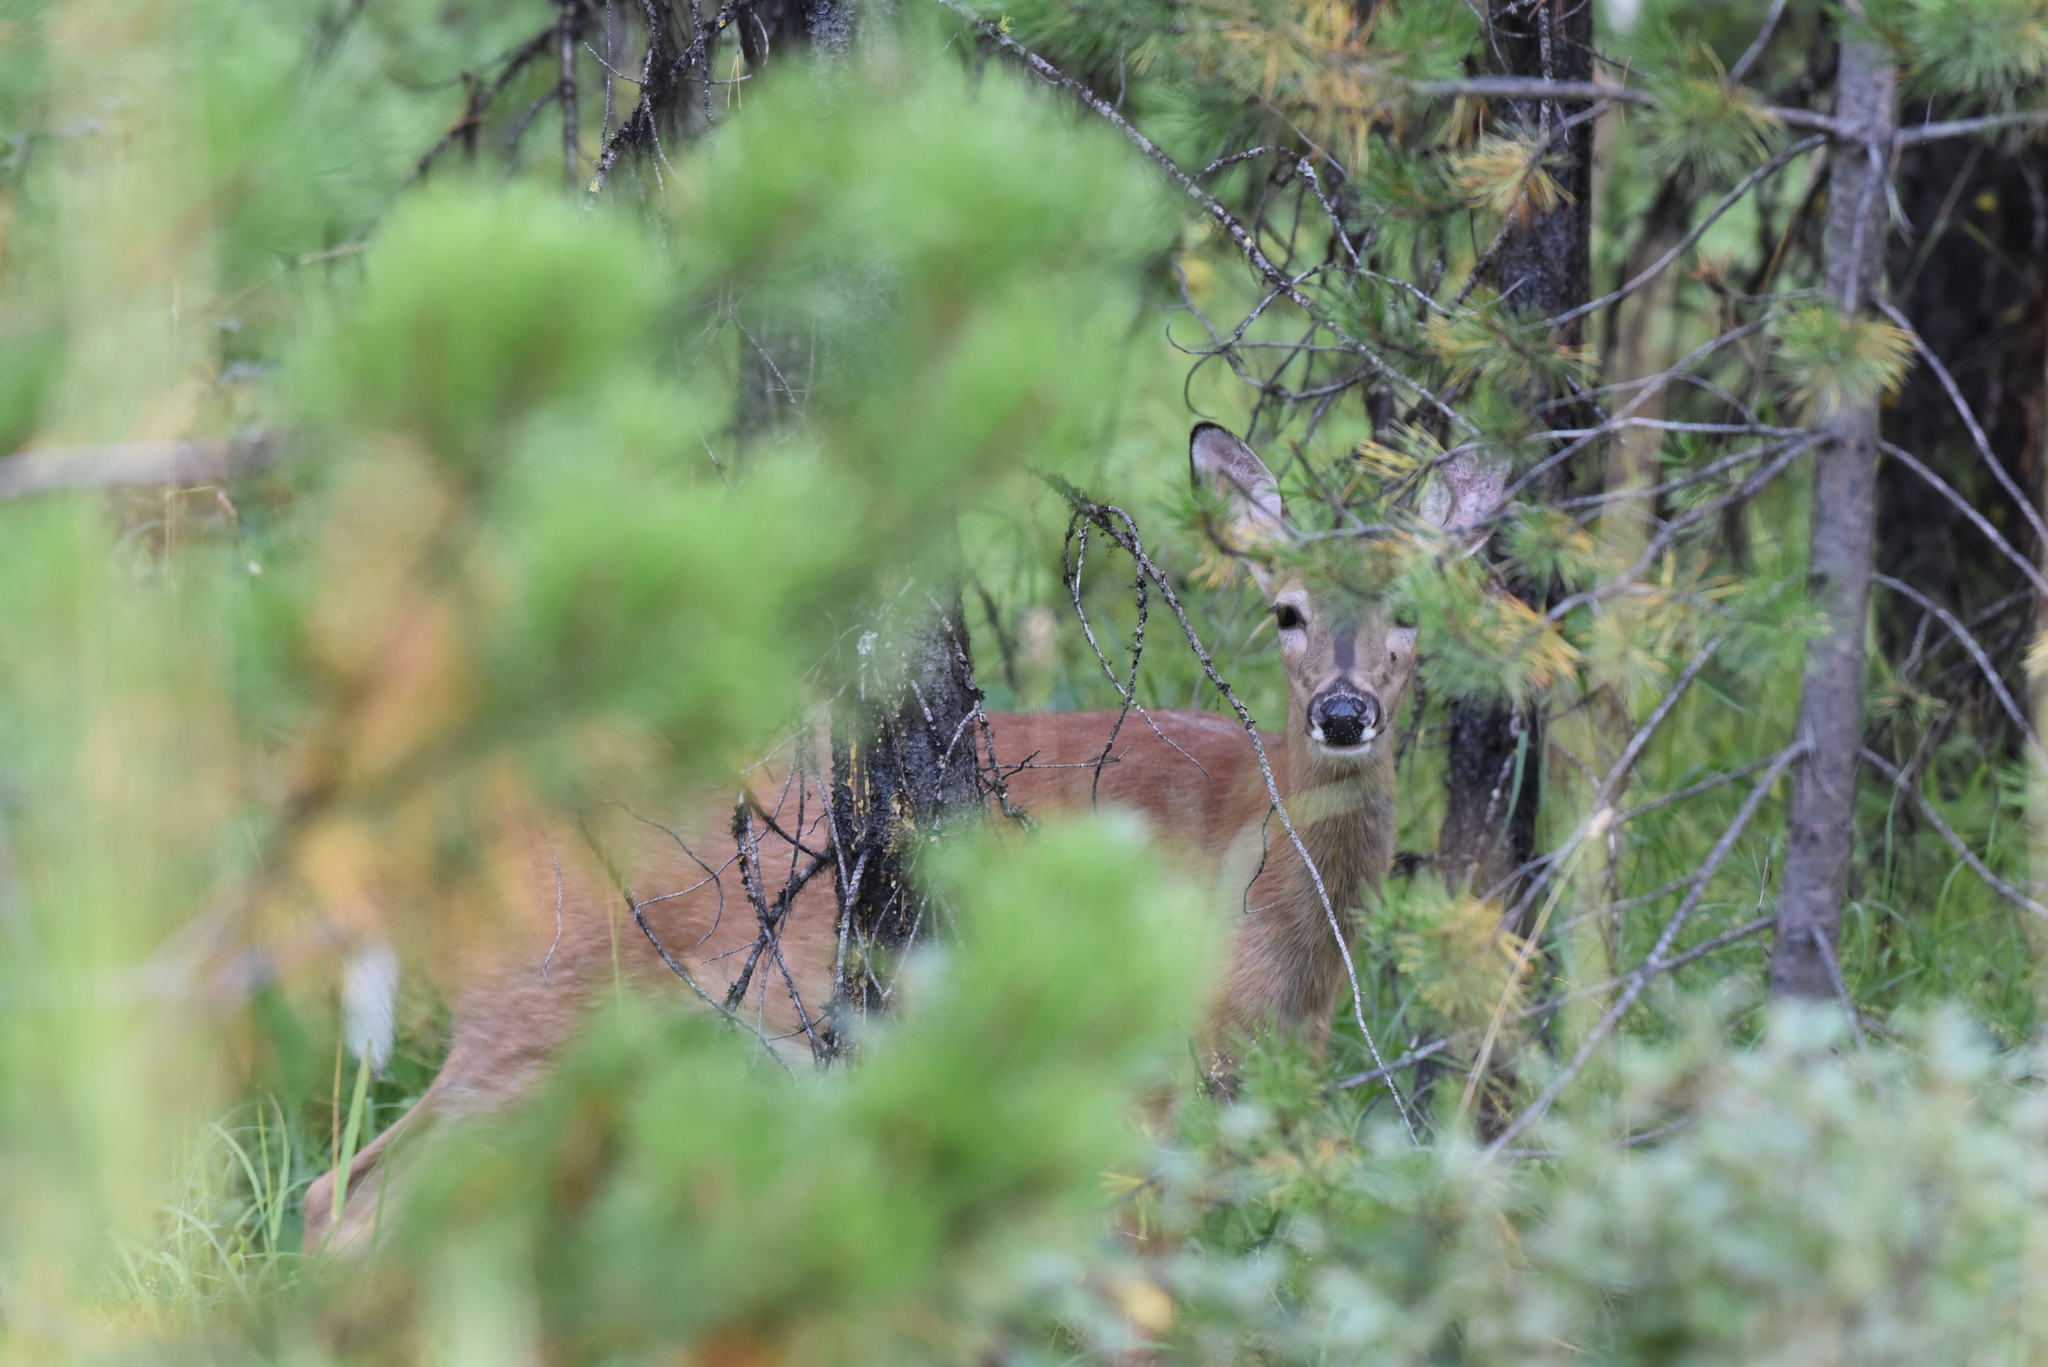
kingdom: Animalia
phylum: Chordata
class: Mammalia
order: Artiodactyla
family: Cervidae
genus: Odocoileus
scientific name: Odocoileus virginianus
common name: White-tailed deer
